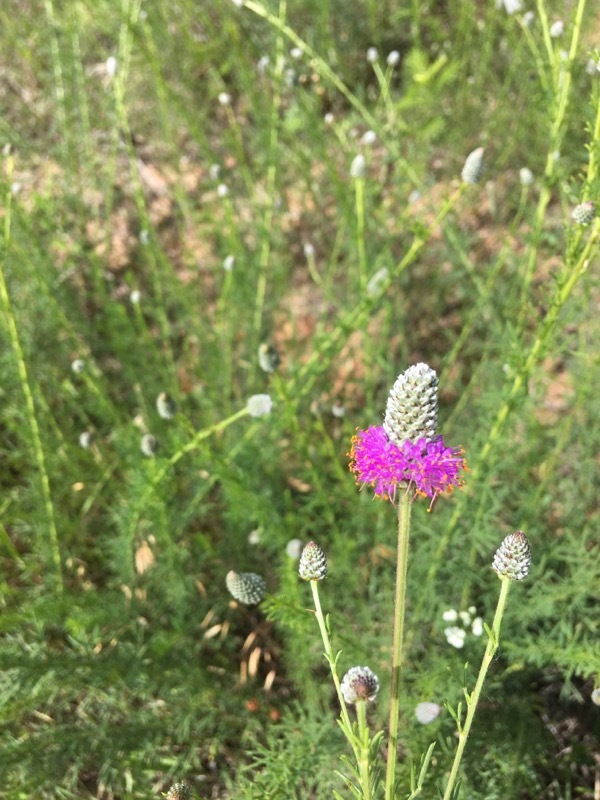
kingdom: Plantae
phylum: Tracheophyta
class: Magnoliopsida
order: Fabales
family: Fabaceae
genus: Dalea
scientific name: Dalea purpurea
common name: Purple prairie-clover
